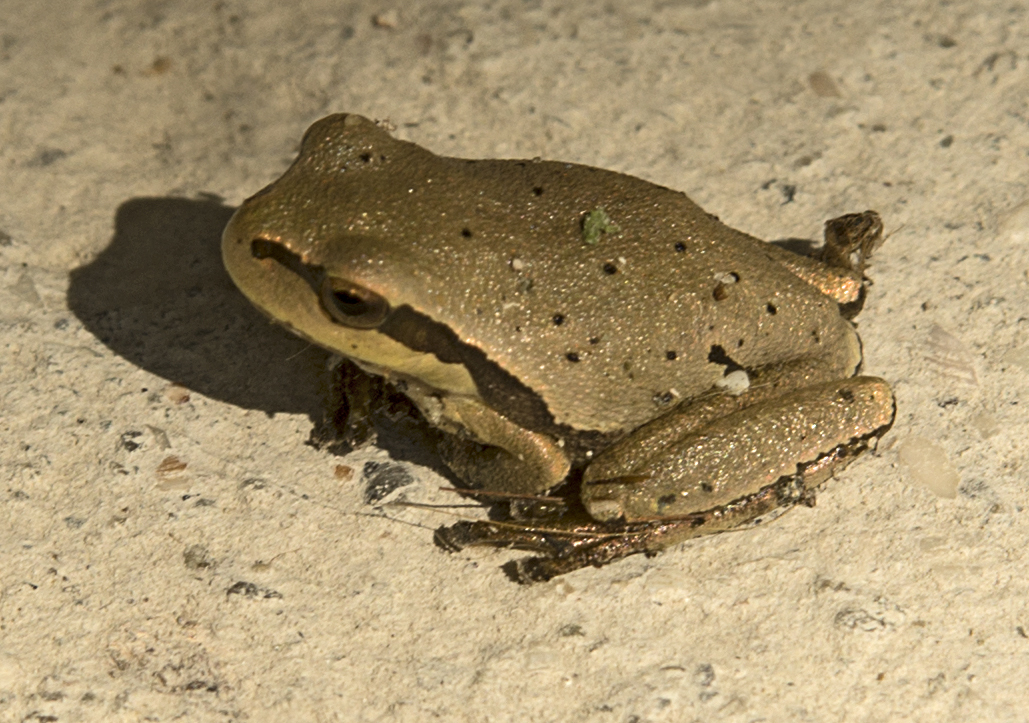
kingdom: Animalia
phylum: Chordata
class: Amphibia
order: Anura
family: Hylidae
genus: Hyla
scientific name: Hyla orientalis
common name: Caucasian treefrog
